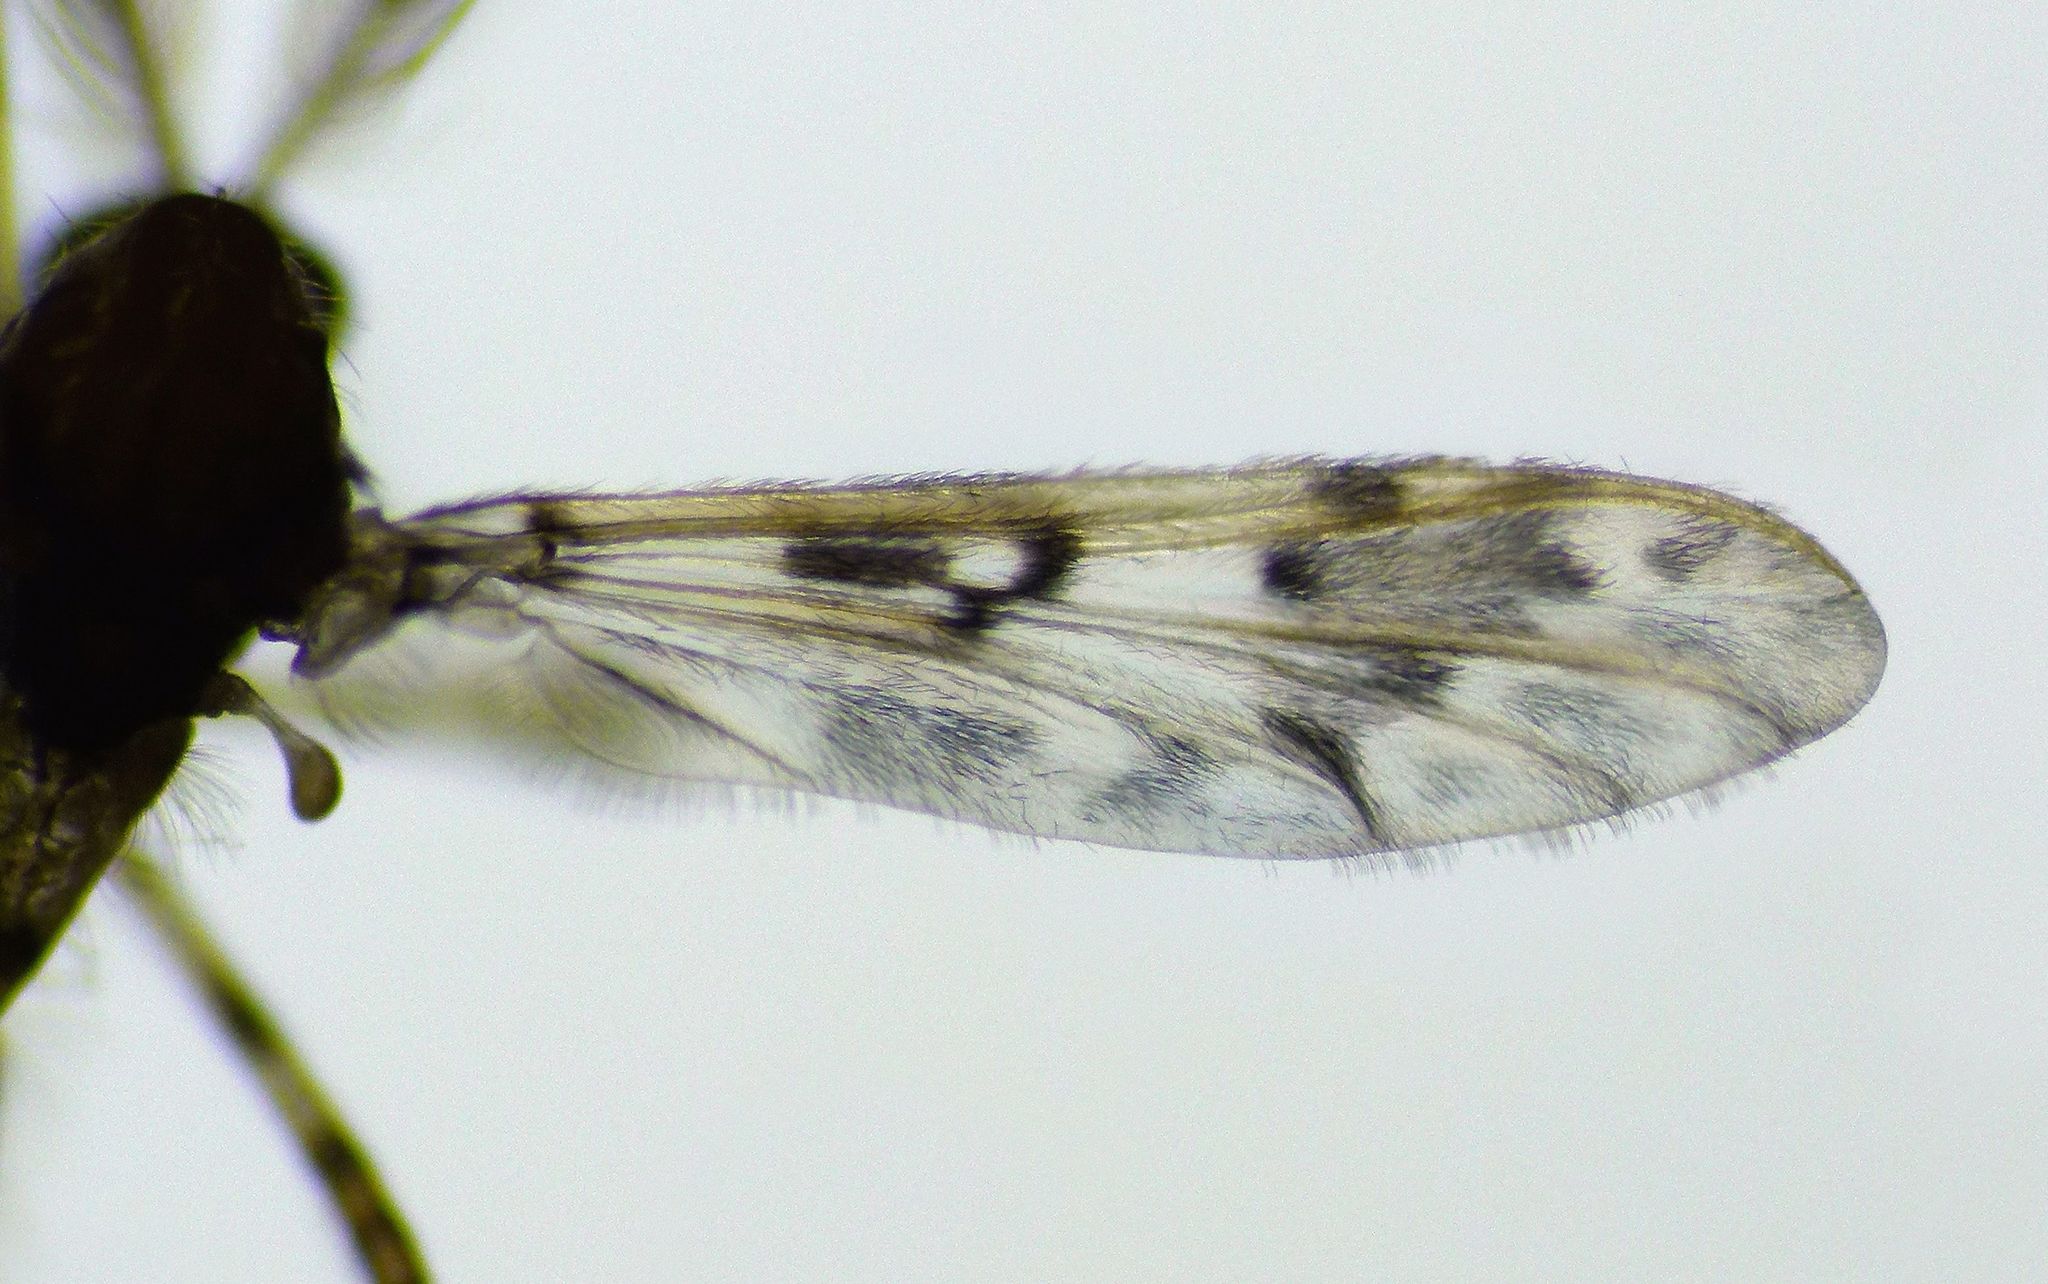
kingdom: Animalia
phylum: Arthropoda
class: Insecta
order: Diptera
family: Chironomidae
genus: Apsectrotanypus
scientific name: Apsectrotanypus
